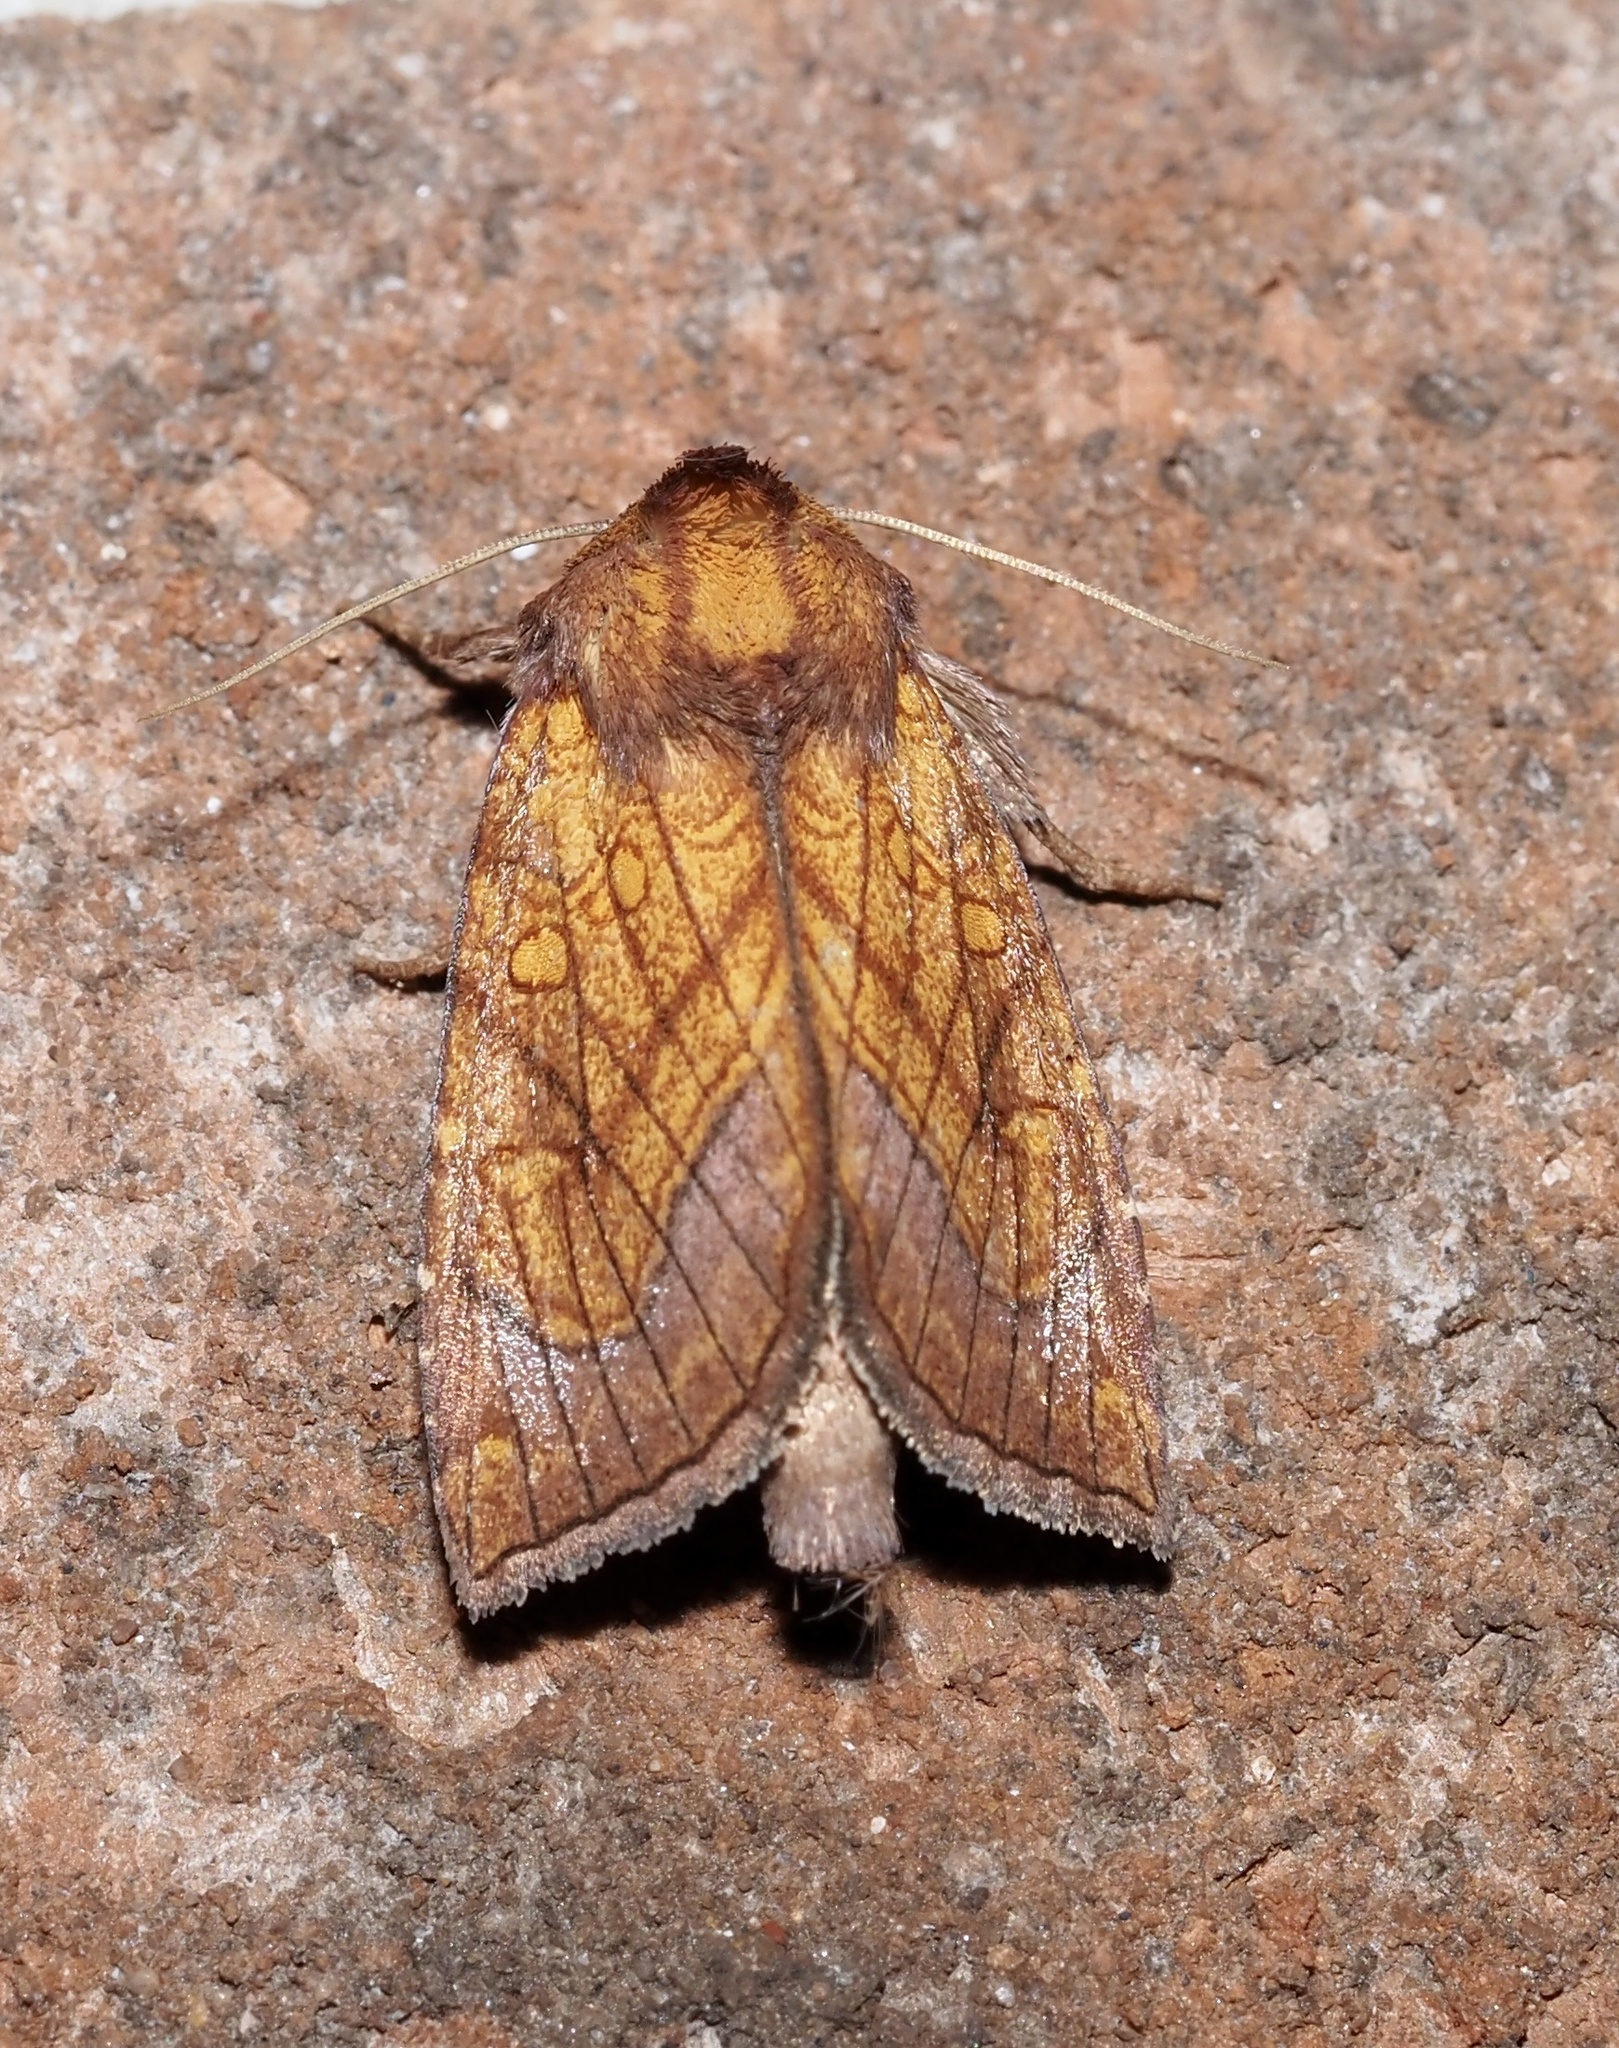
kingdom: Animalia
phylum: Arthropoda
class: Insecta
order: Lepidoptera
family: Noctuidae
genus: Papaipema
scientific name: Papaipema inquaesita
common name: Sensitive fern borer moth
